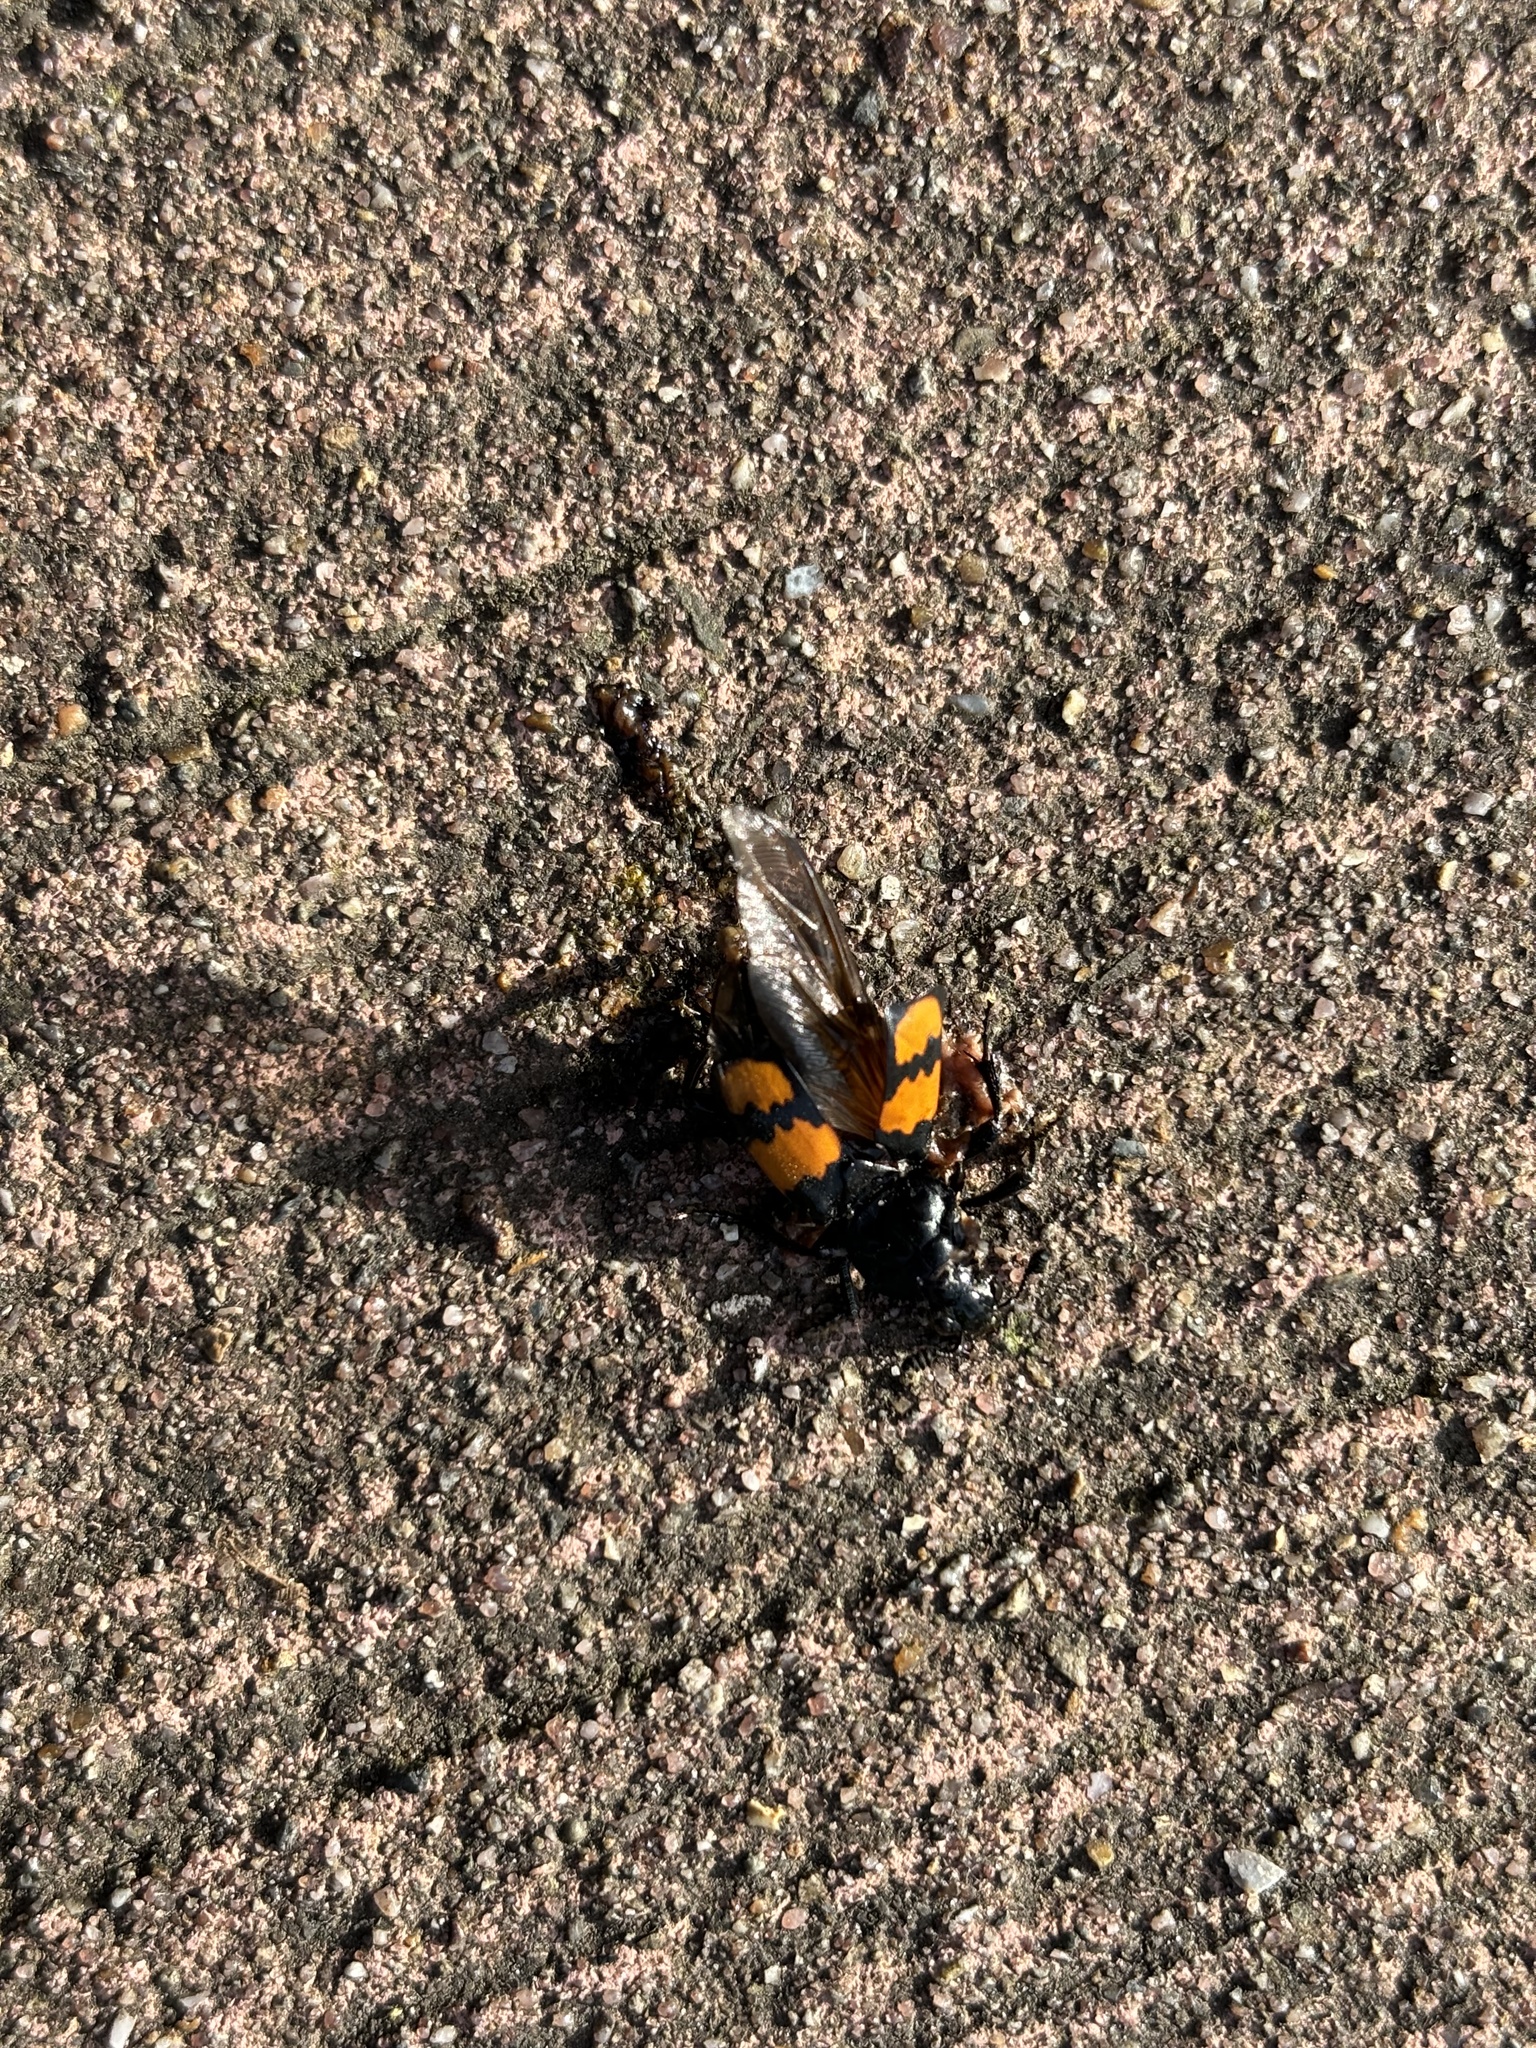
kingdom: Animalia
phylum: Arthropoda
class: Insecta
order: Coleoptera
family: Staphylinidae
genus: Nicrophorus
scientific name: Nicrophorus vespilloides
